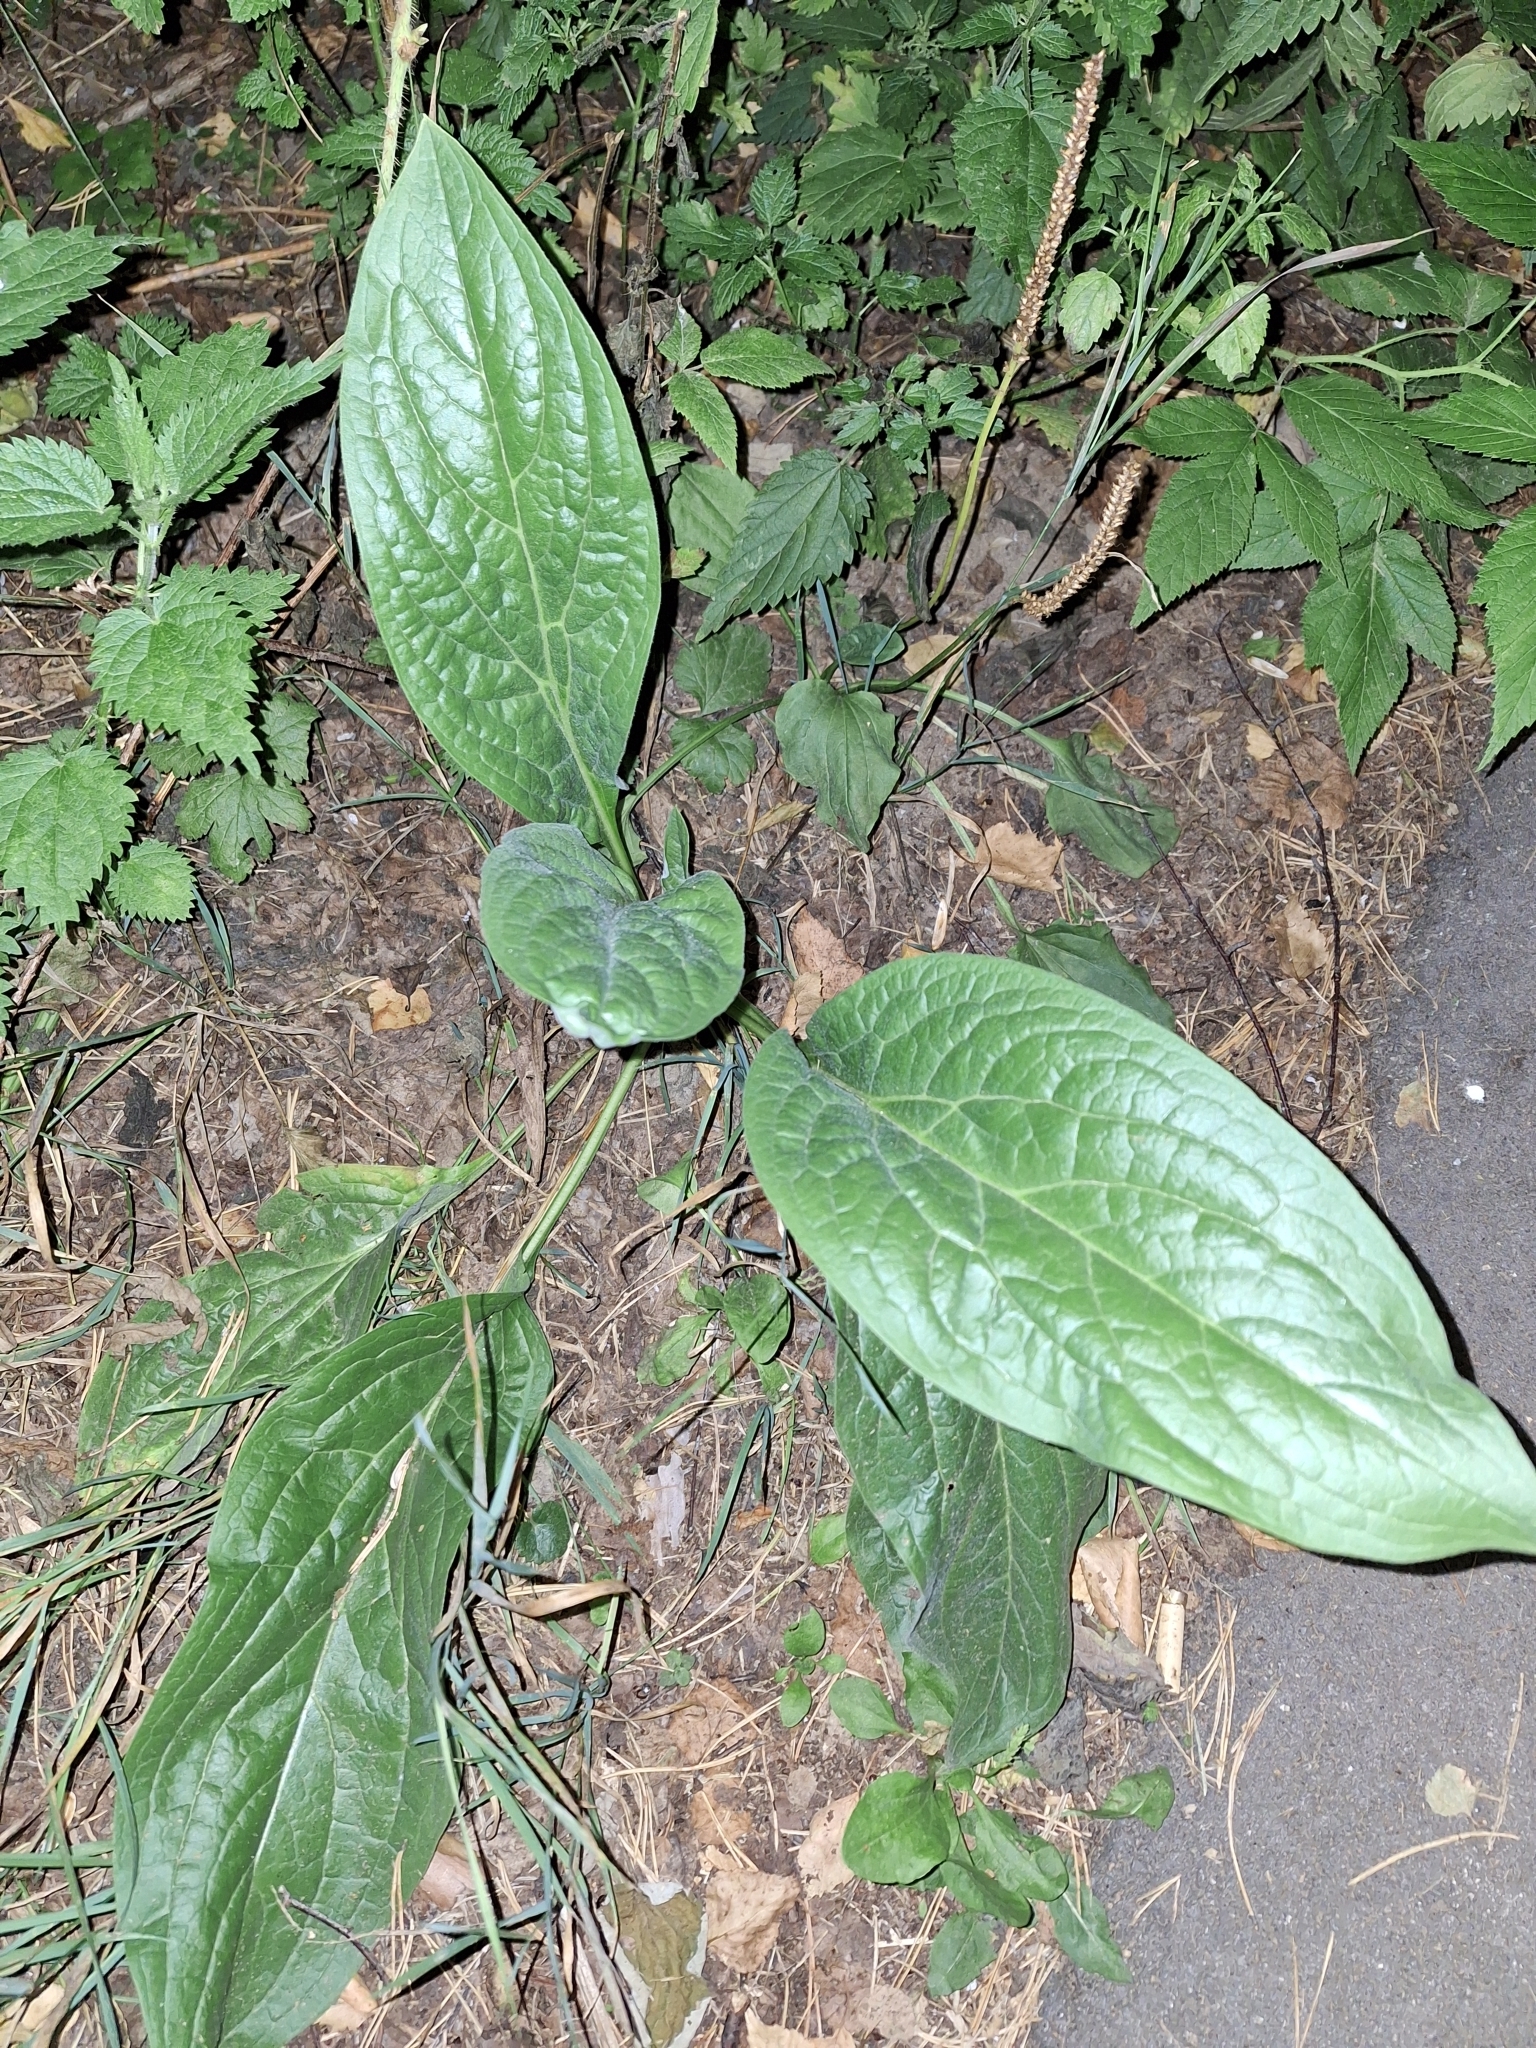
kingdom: Plantae
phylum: Tracheophyta
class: Magnoliopsida
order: Boraginales
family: Boraginaceae
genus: Cynoglossum
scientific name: Cynoglossum officinale
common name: Hound's-tongue
